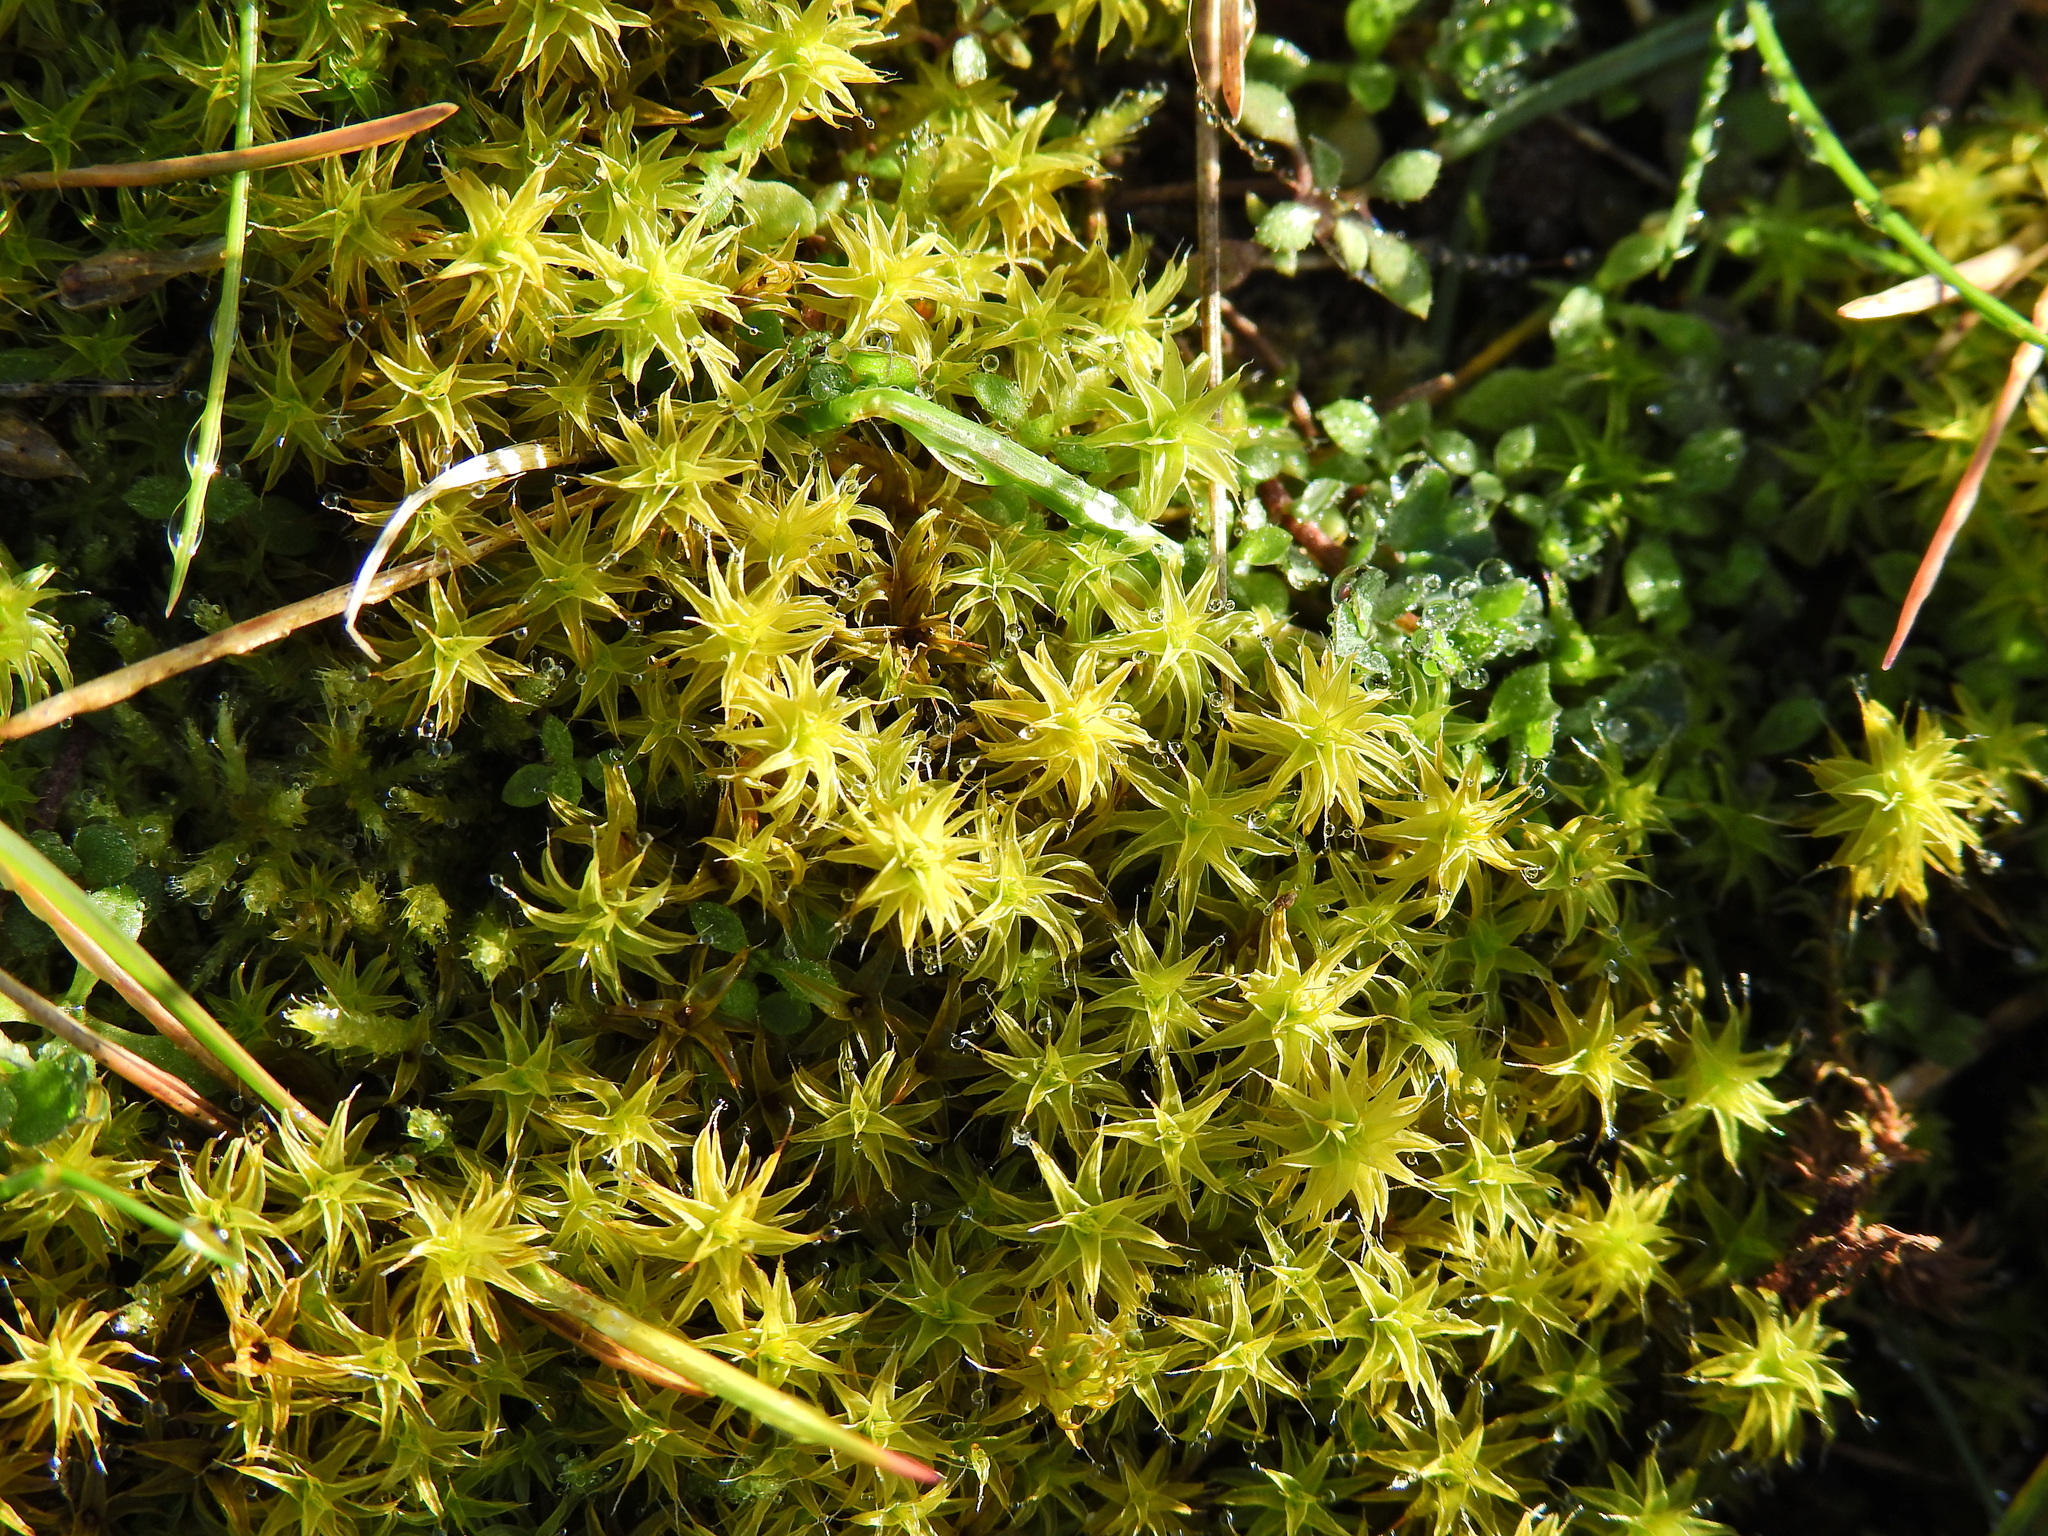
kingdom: Plantae
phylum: Bryophyta
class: Bryopsida
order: Pottiales
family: Pottiaceae
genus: Syntrichia
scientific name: Syntrichia ruralis
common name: Sidewalk screw moss
